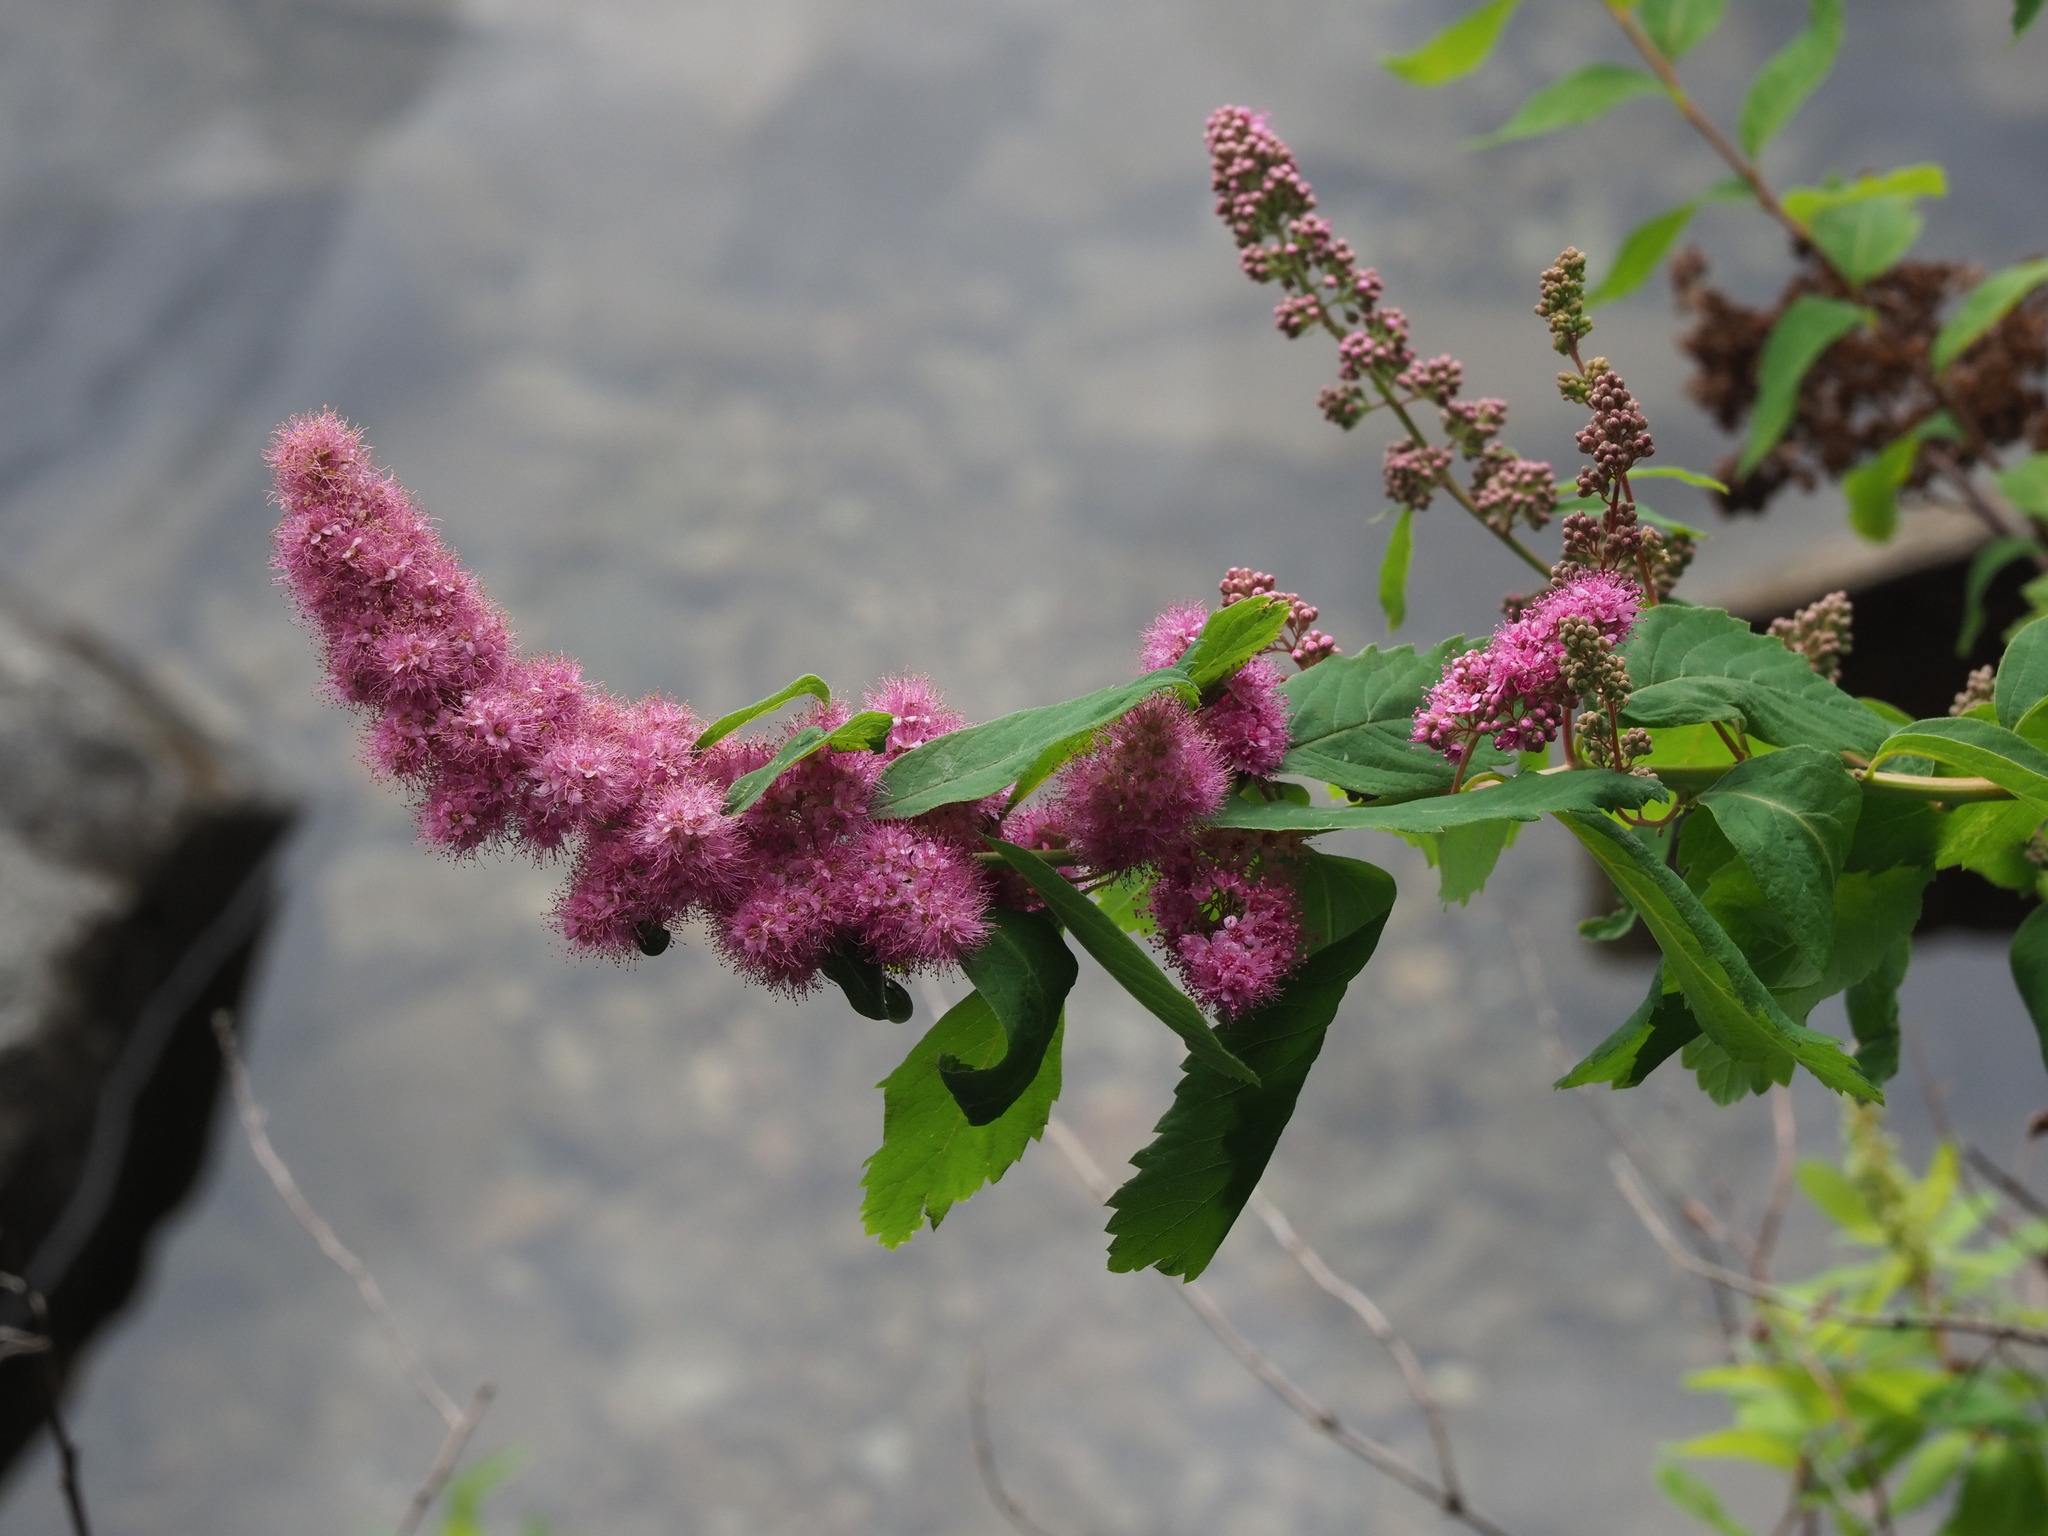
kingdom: Plantae
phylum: Tracheophyta
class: Magnoliopsida
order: Rosales
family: Rosaceae
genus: Spiraea
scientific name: Spiraea douglasii
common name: Steeplebush
